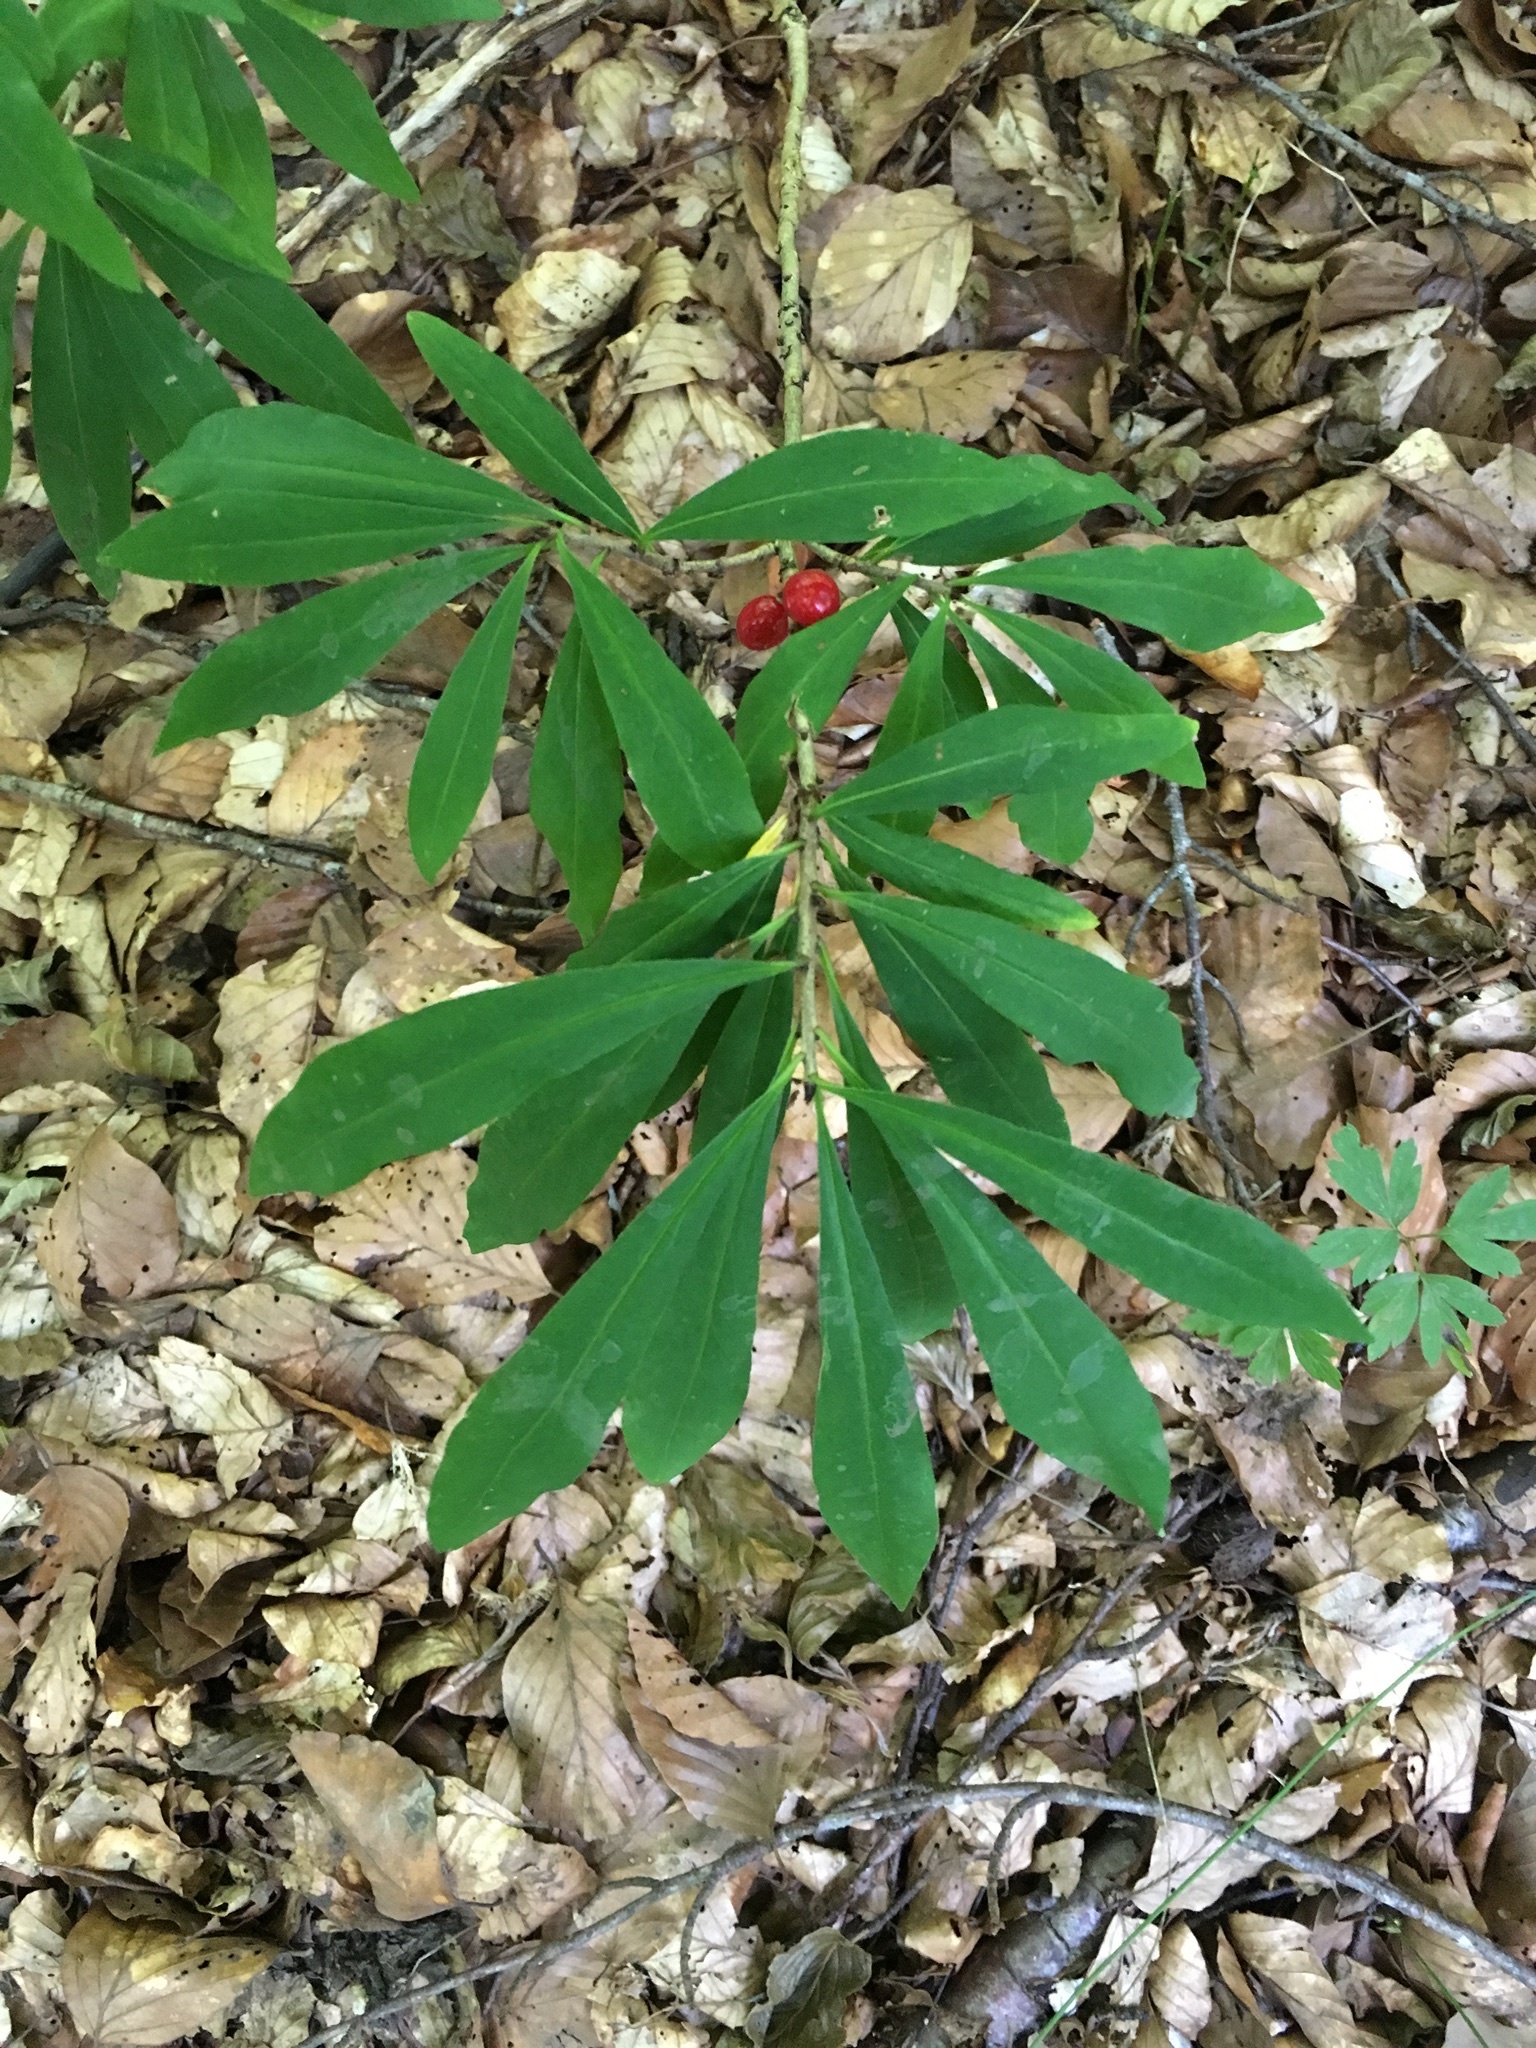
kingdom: Plantae
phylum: Tracheophyta
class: Magnoliopsida
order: Malvales
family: Thymelaeaceae
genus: Daphne
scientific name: Daphne mezereum
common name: Mezereon
